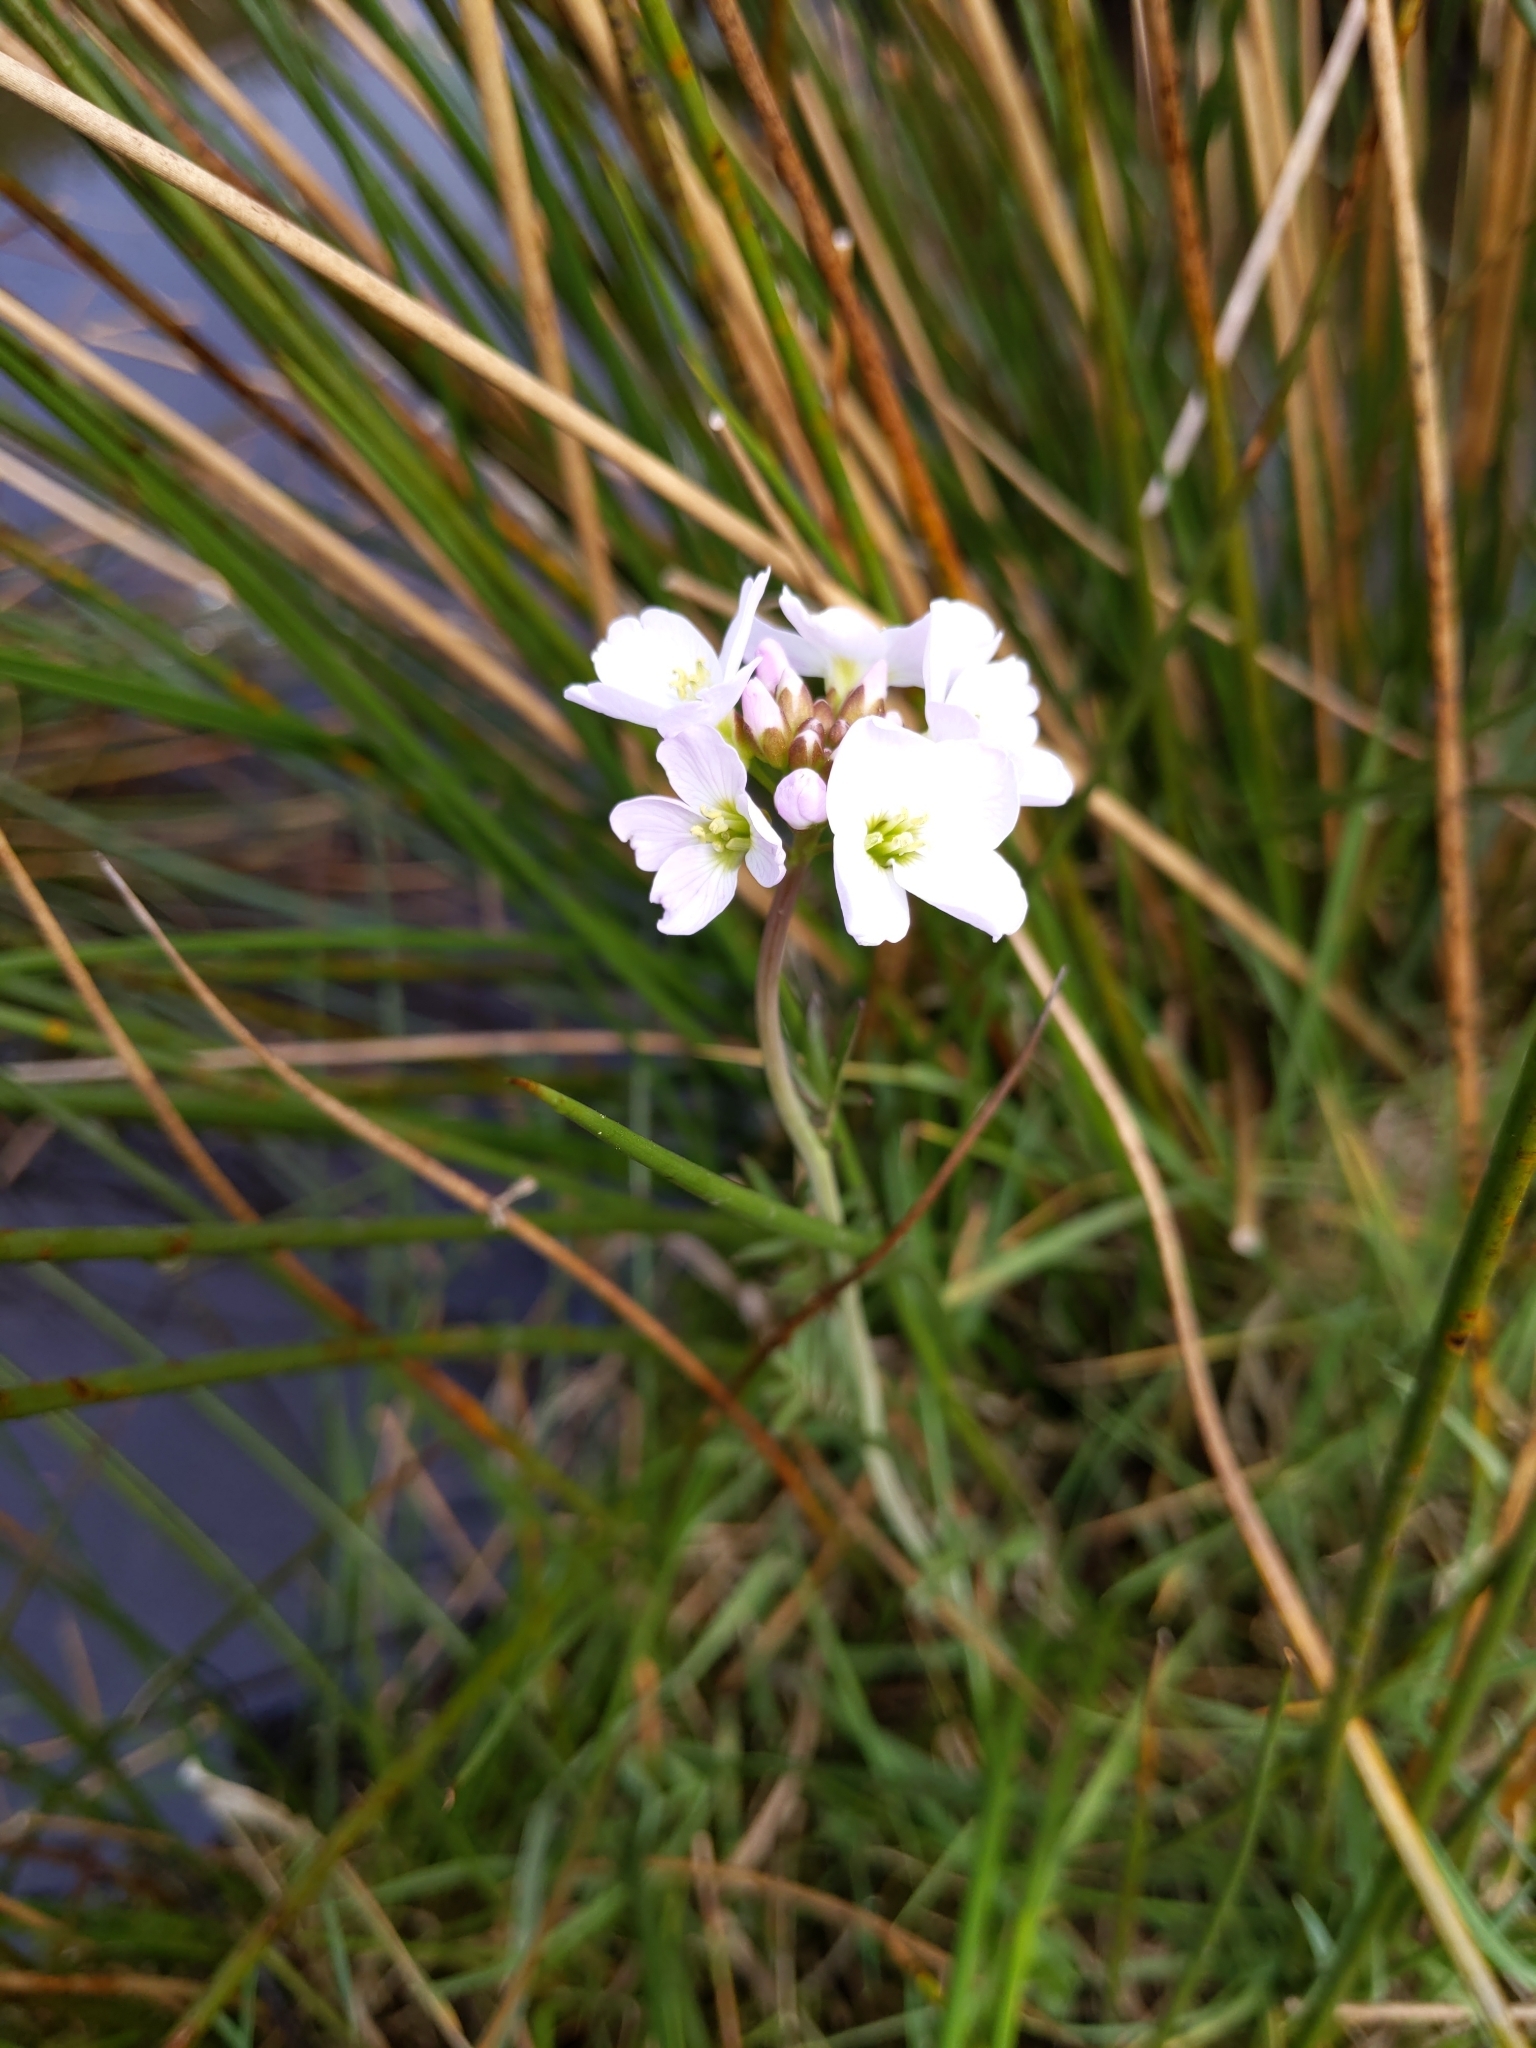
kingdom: Plantae
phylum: Tracheophyta
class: Magnoliopsida
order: Brassicales
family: Brassicaceae
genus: Cardamine
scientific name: Cardamine pratensis
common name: Cuckoo flower
